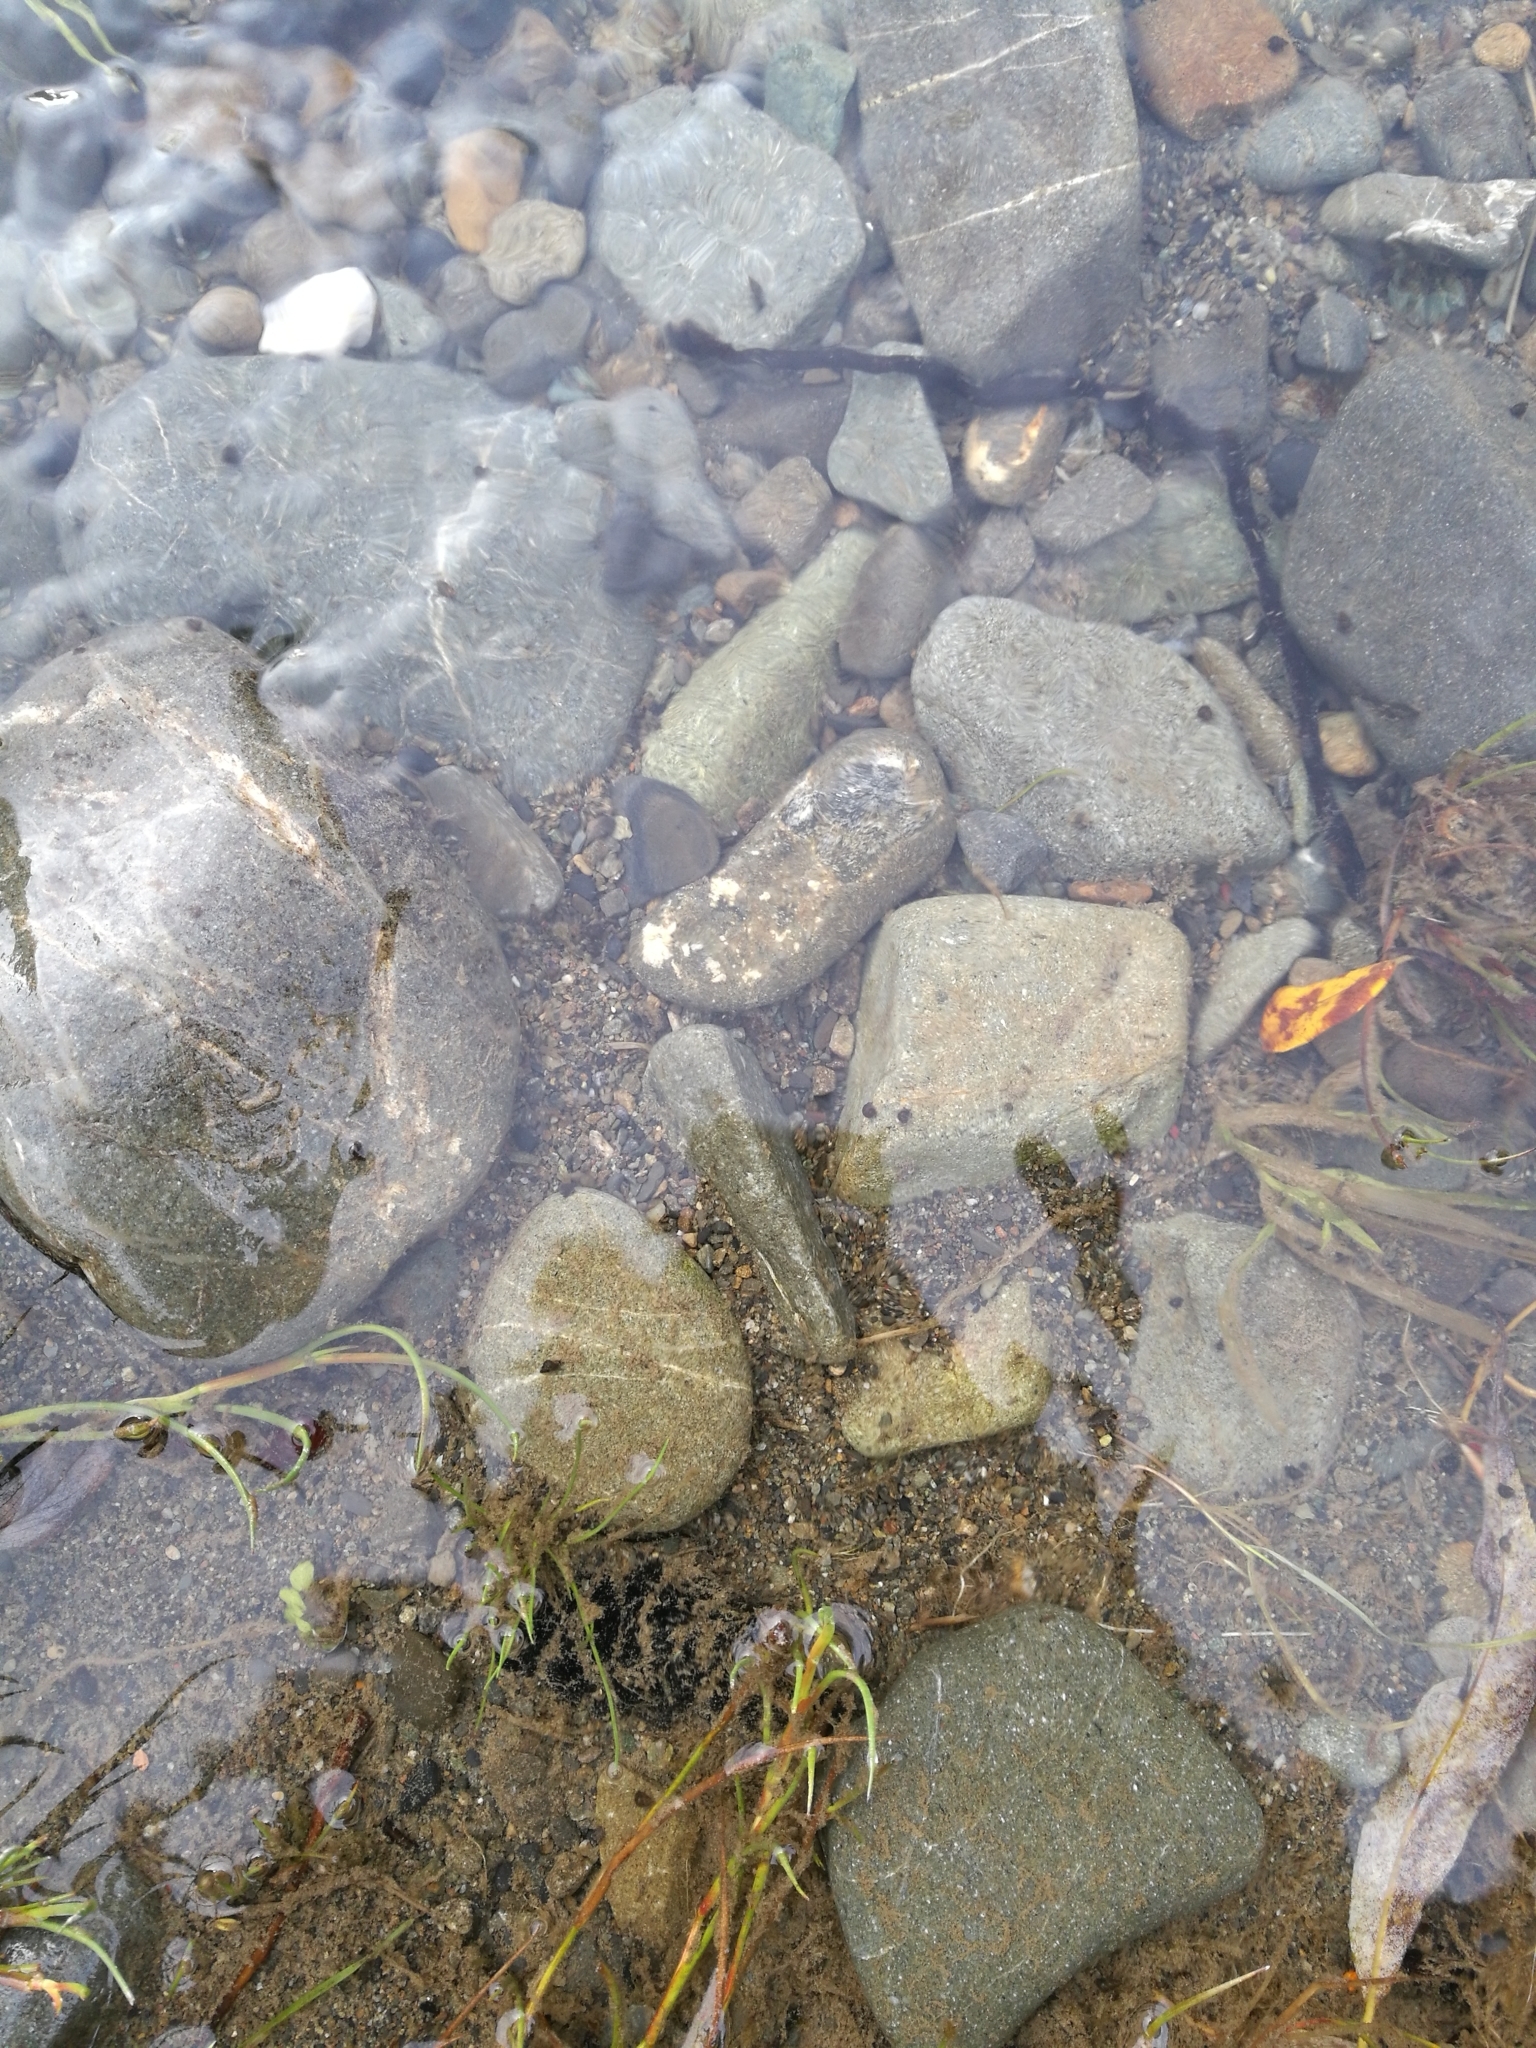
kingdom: Animalia
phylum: Mollusca
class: Gastropoda
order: Littorinimorpha
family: Tateidae
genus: Potamopyrgus
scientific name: Potamopyrgus antipodarum
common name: Jenkins' spire snail
